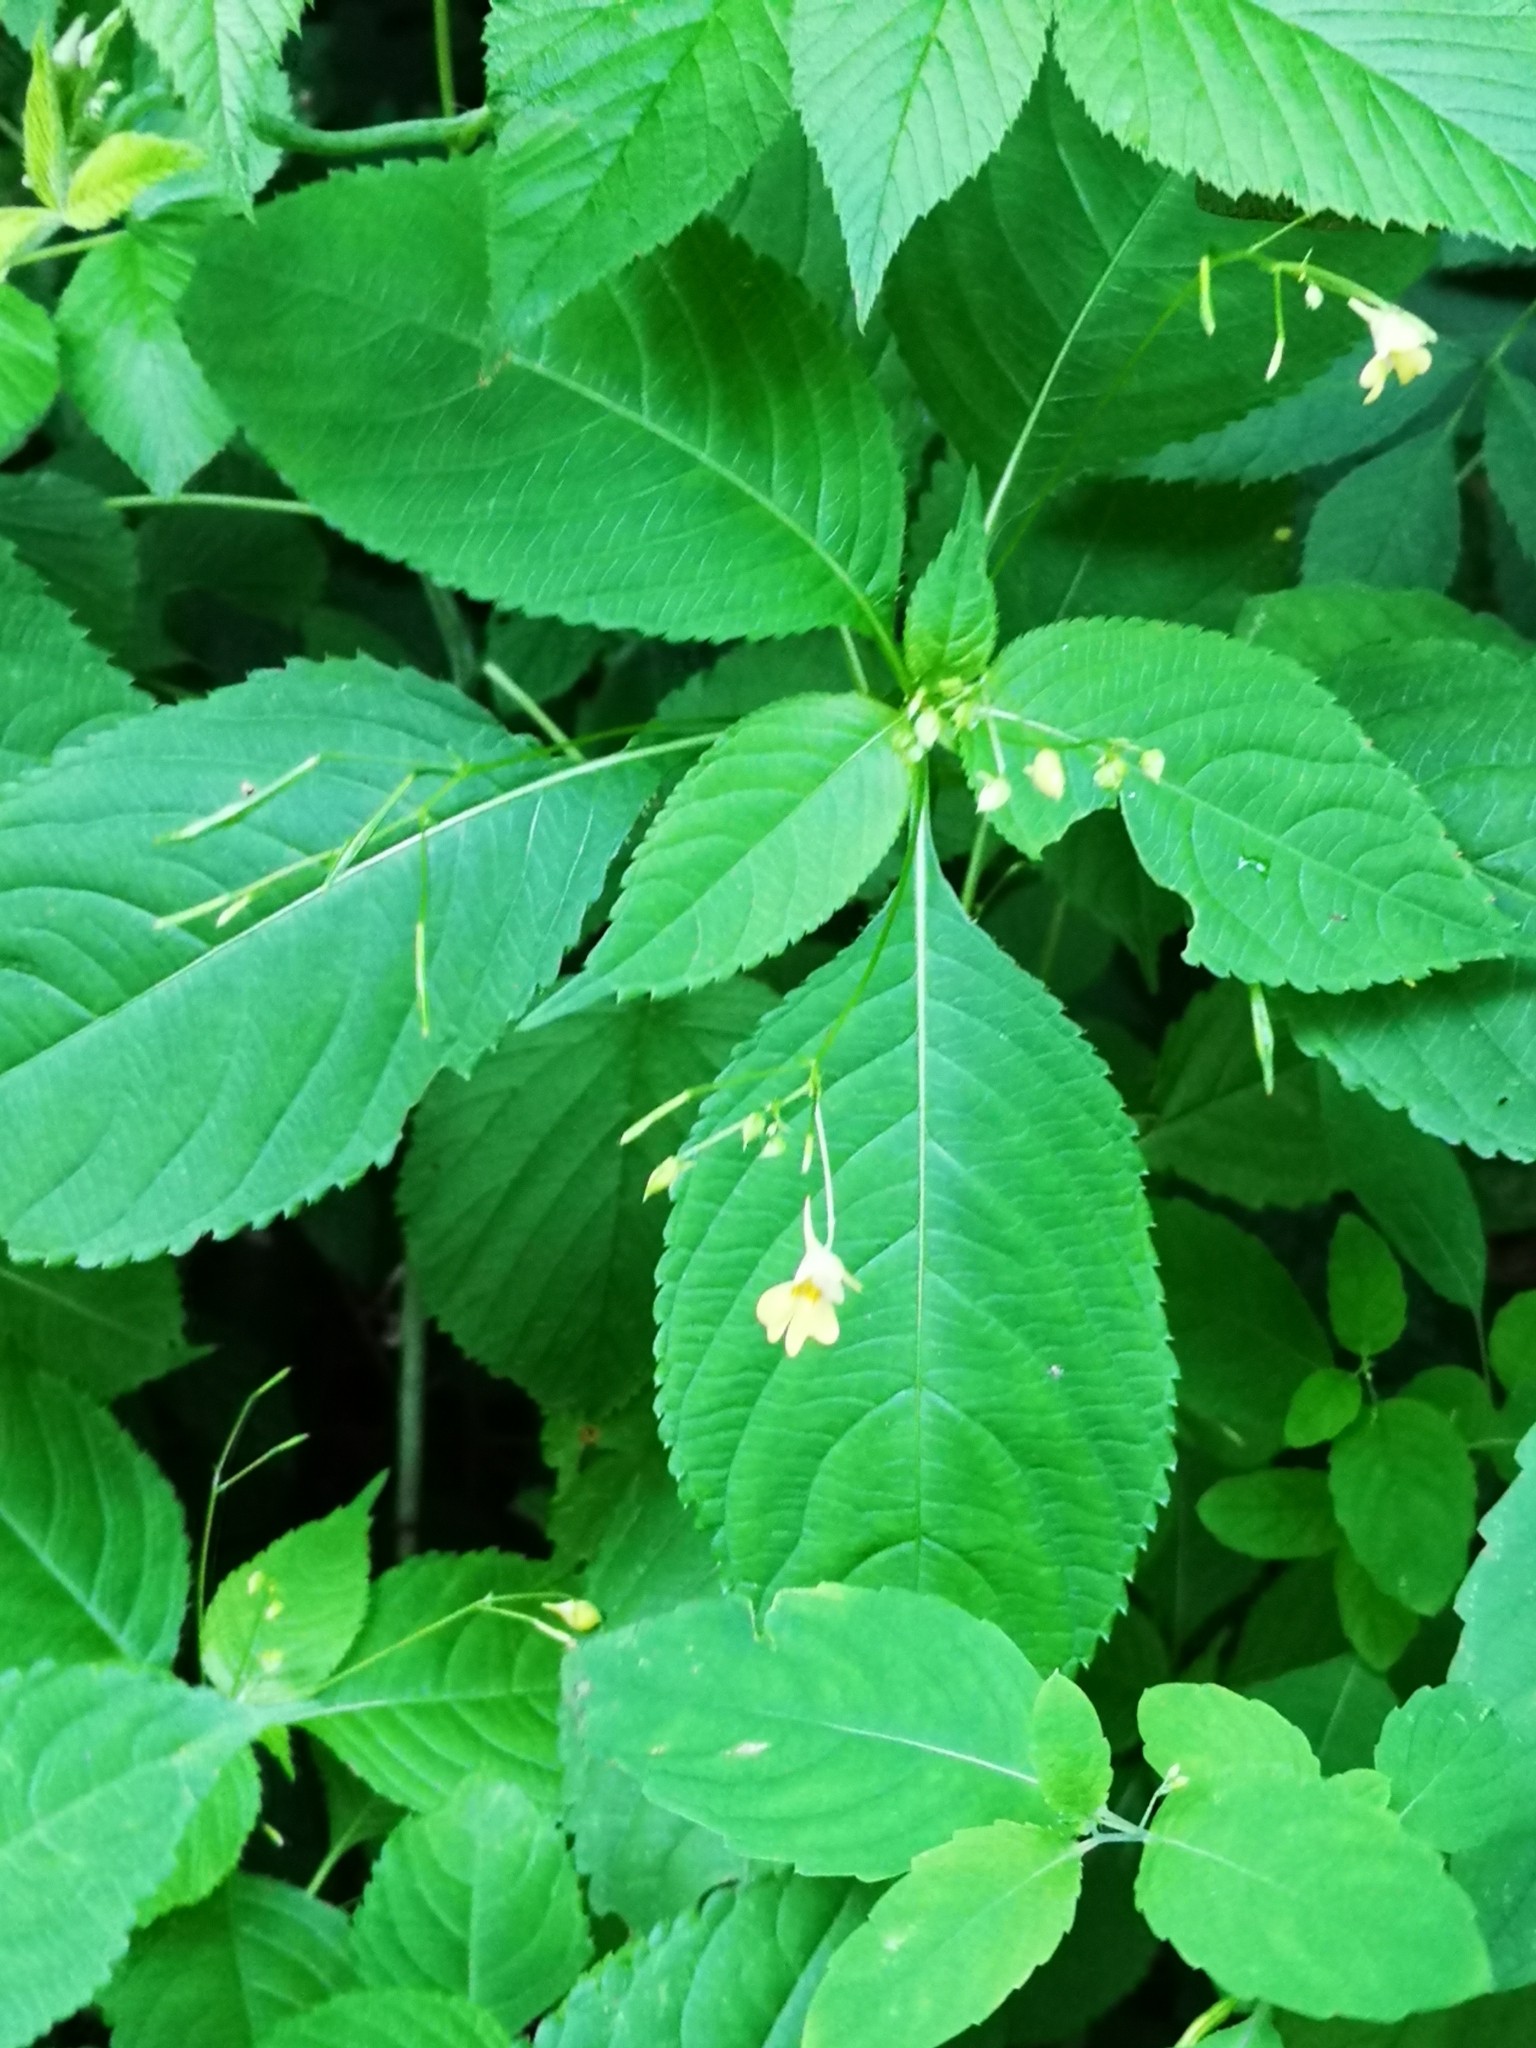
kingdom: Plantae
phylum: Tracheophyta
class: Magnoliopsida
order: Ericales
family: Balsaminaceae
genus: Impatiens
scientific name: Impatiens parviflora
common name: Small balsam
